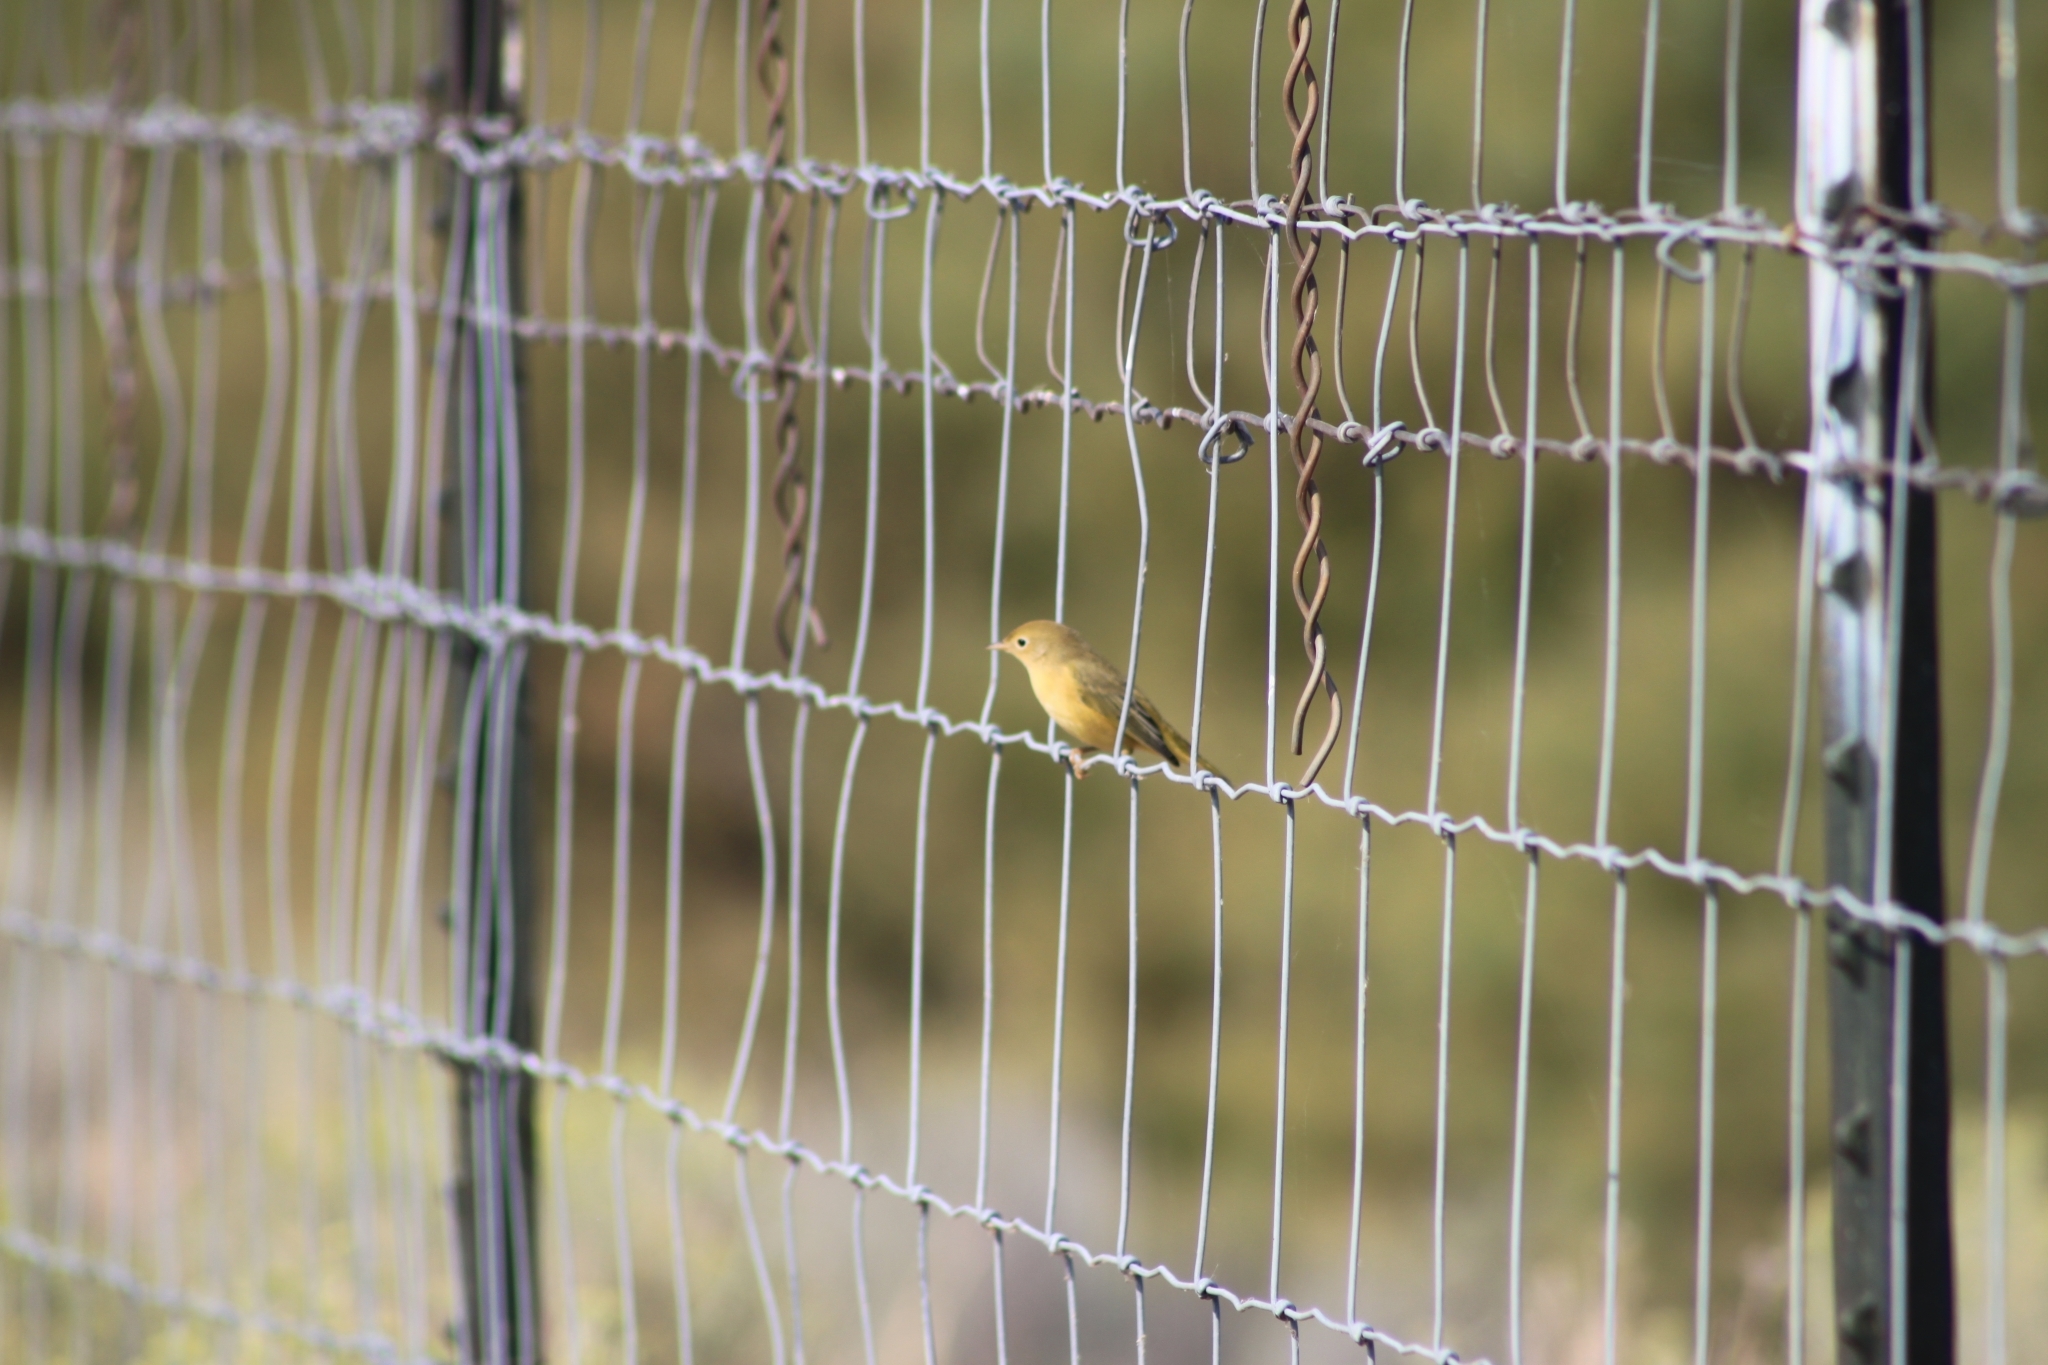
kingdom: Animalia
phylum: Chordata
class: Aves
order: Passeriformes
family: Parulidae
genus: Setophaga
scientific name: Setophaga petechia
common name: Yellow warbler
